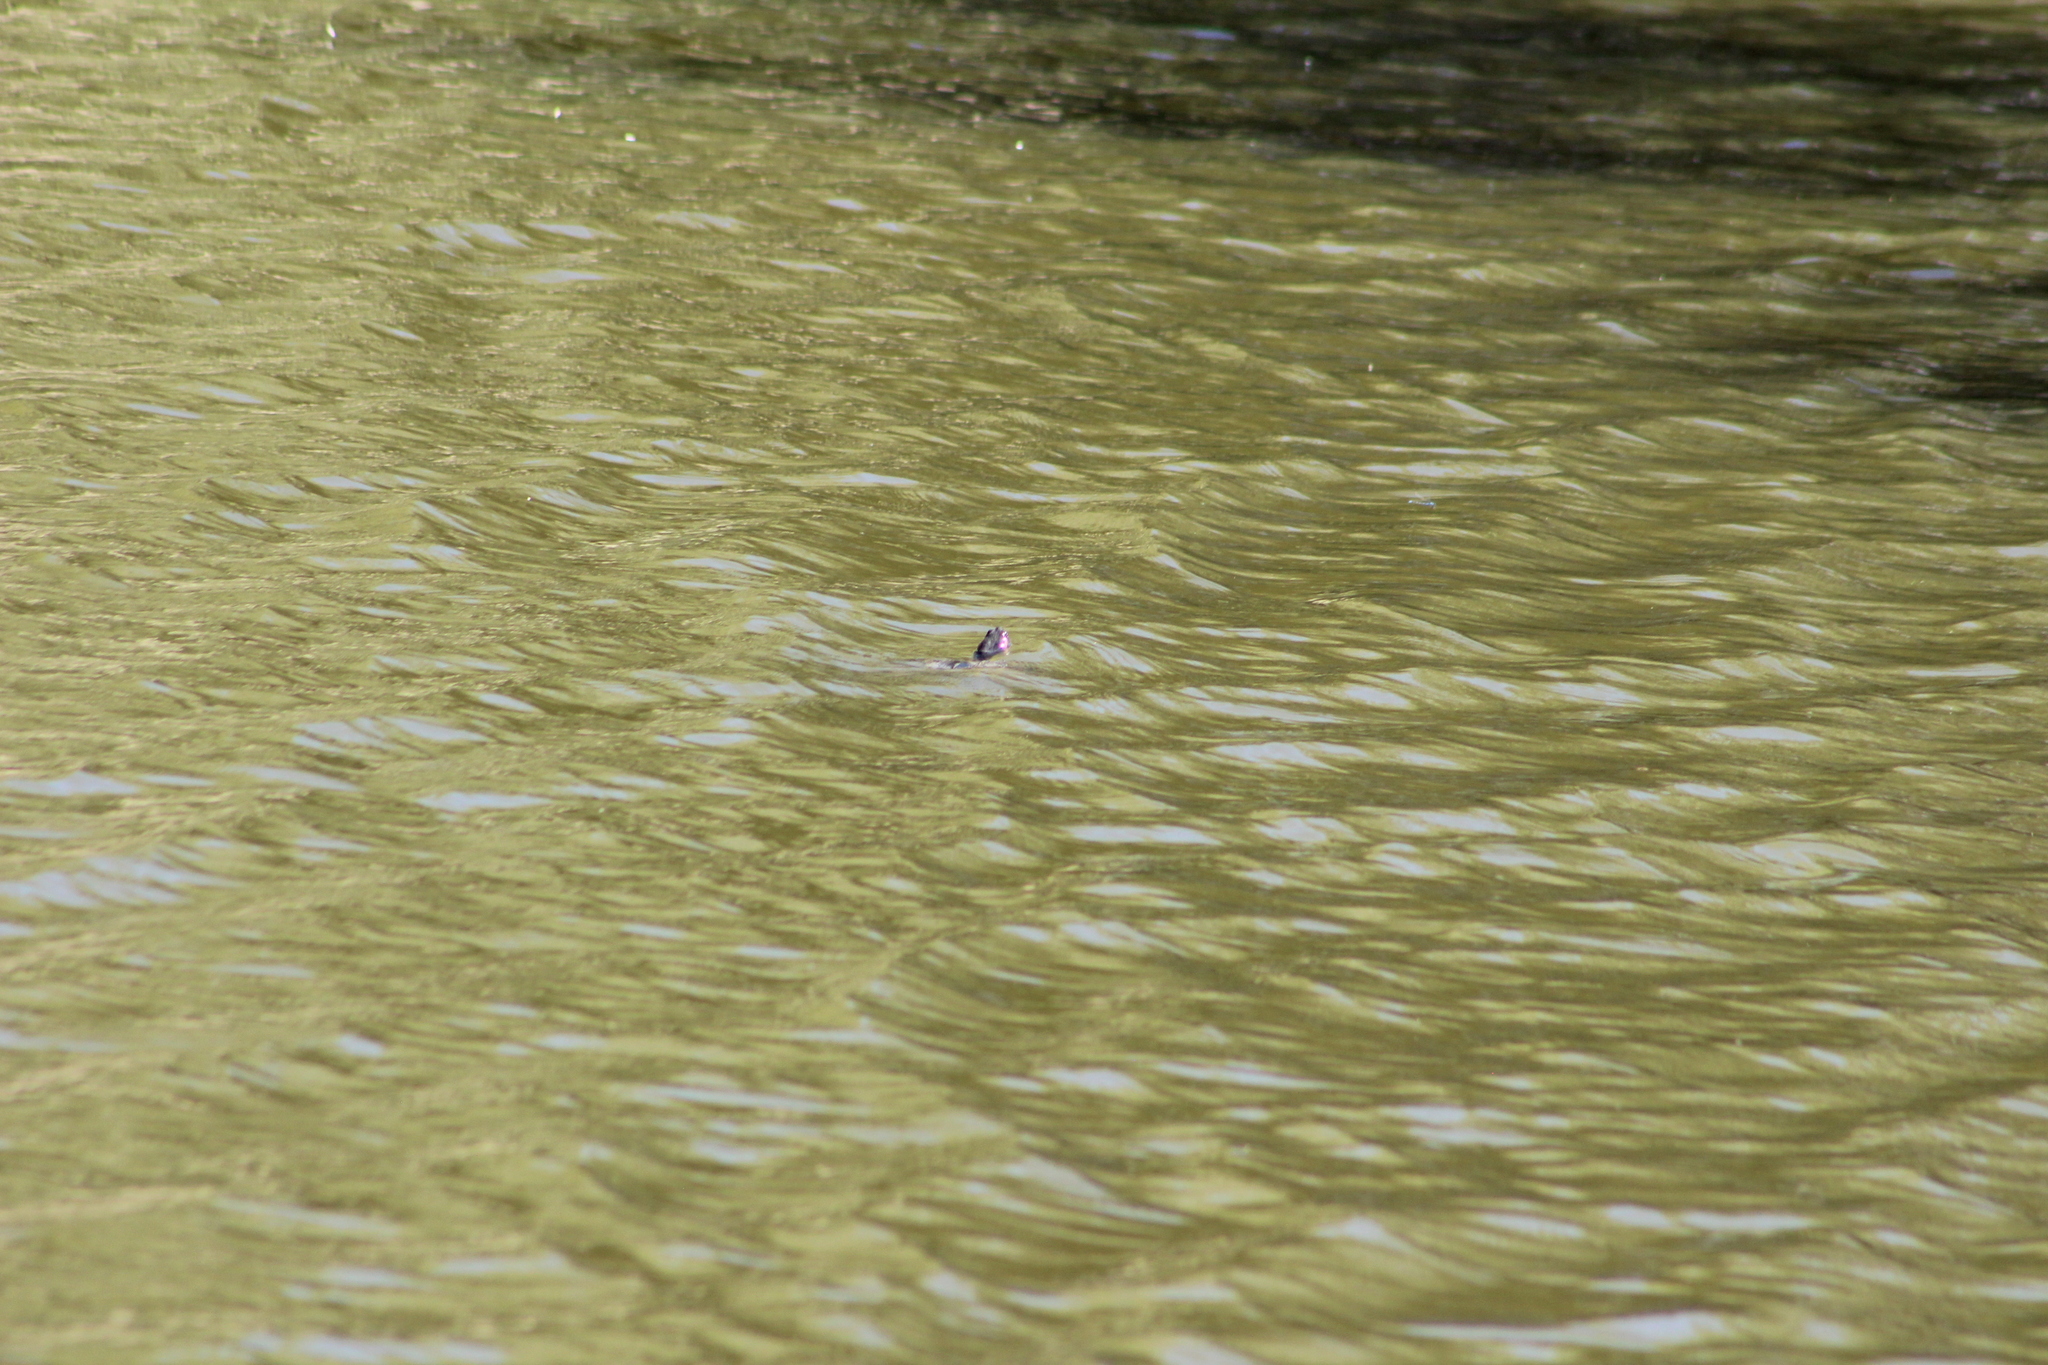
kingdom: Animalia
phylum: Chordata
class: Testudines
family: Emydidae
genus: Trachemys
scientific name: Trachemys scripta
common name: Slider
